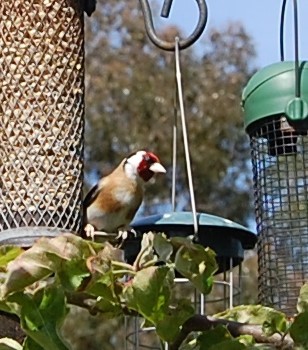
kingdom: Animalia
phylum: Chordata
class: Aves
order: Passeriformes
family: Fringillidae
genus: Carduelis
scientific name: Carduelis carduelis
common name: European goldfinch
